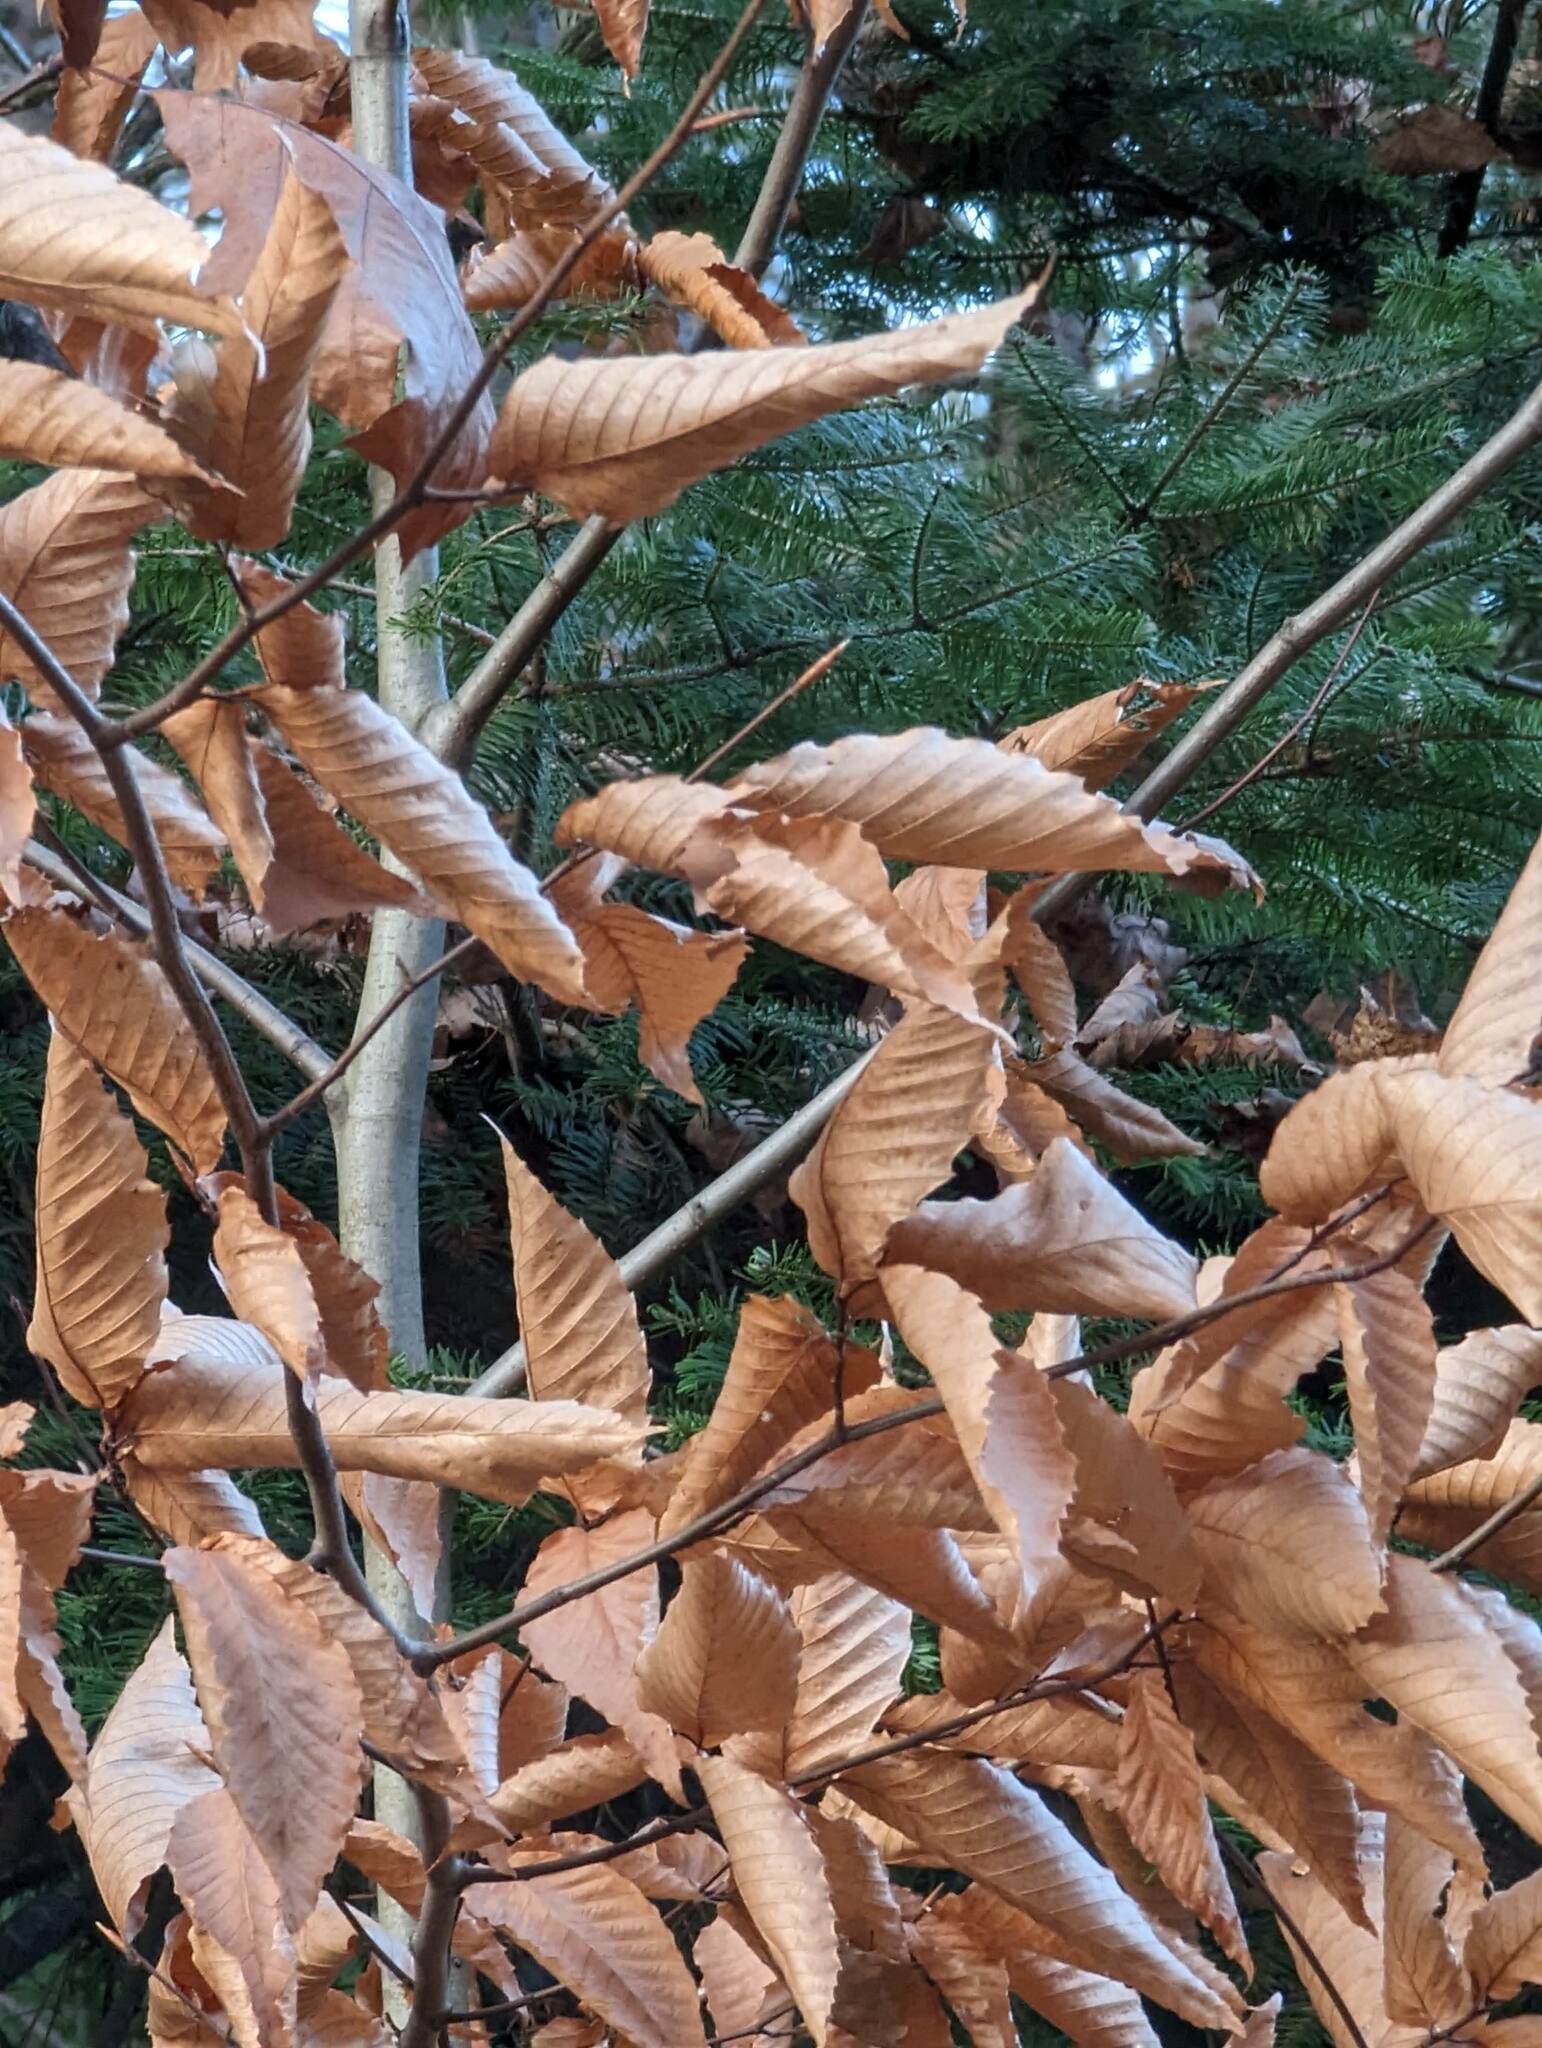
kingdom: Plantae
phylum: Tracheophyta
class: Magnoliopsida
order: Fagales
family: Fagaceae
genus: Fagus
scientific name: Fagus grandifolia
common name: American beech
